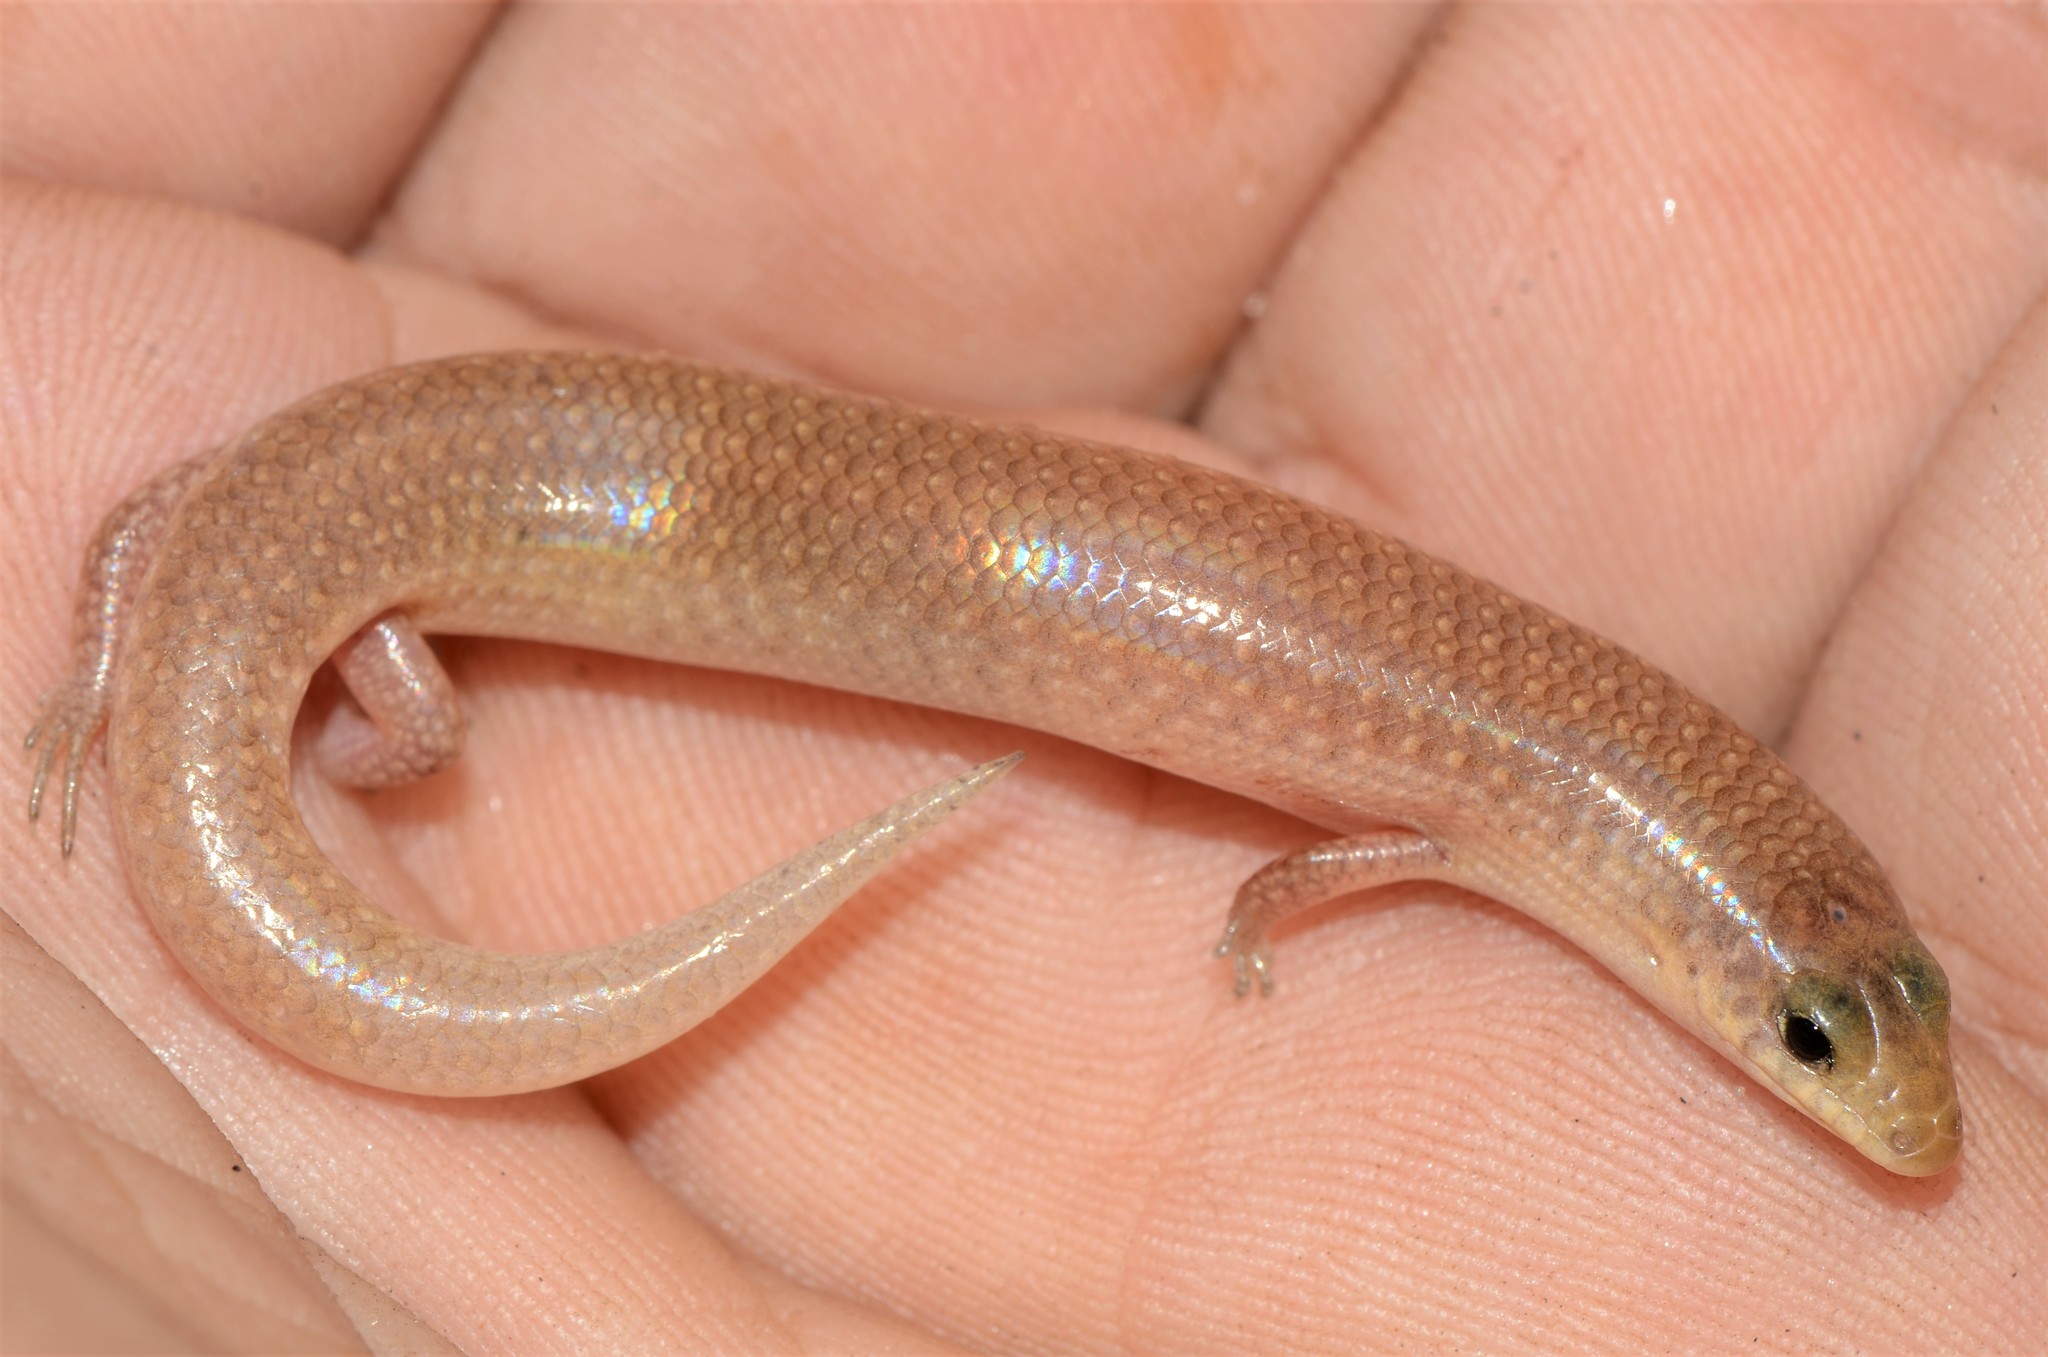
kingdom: Animalia
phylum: Chordata
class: Squamata
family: Scincidae
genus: Mochlus
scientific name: Mochlus sundevallii
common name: Peters' eyelid skink
